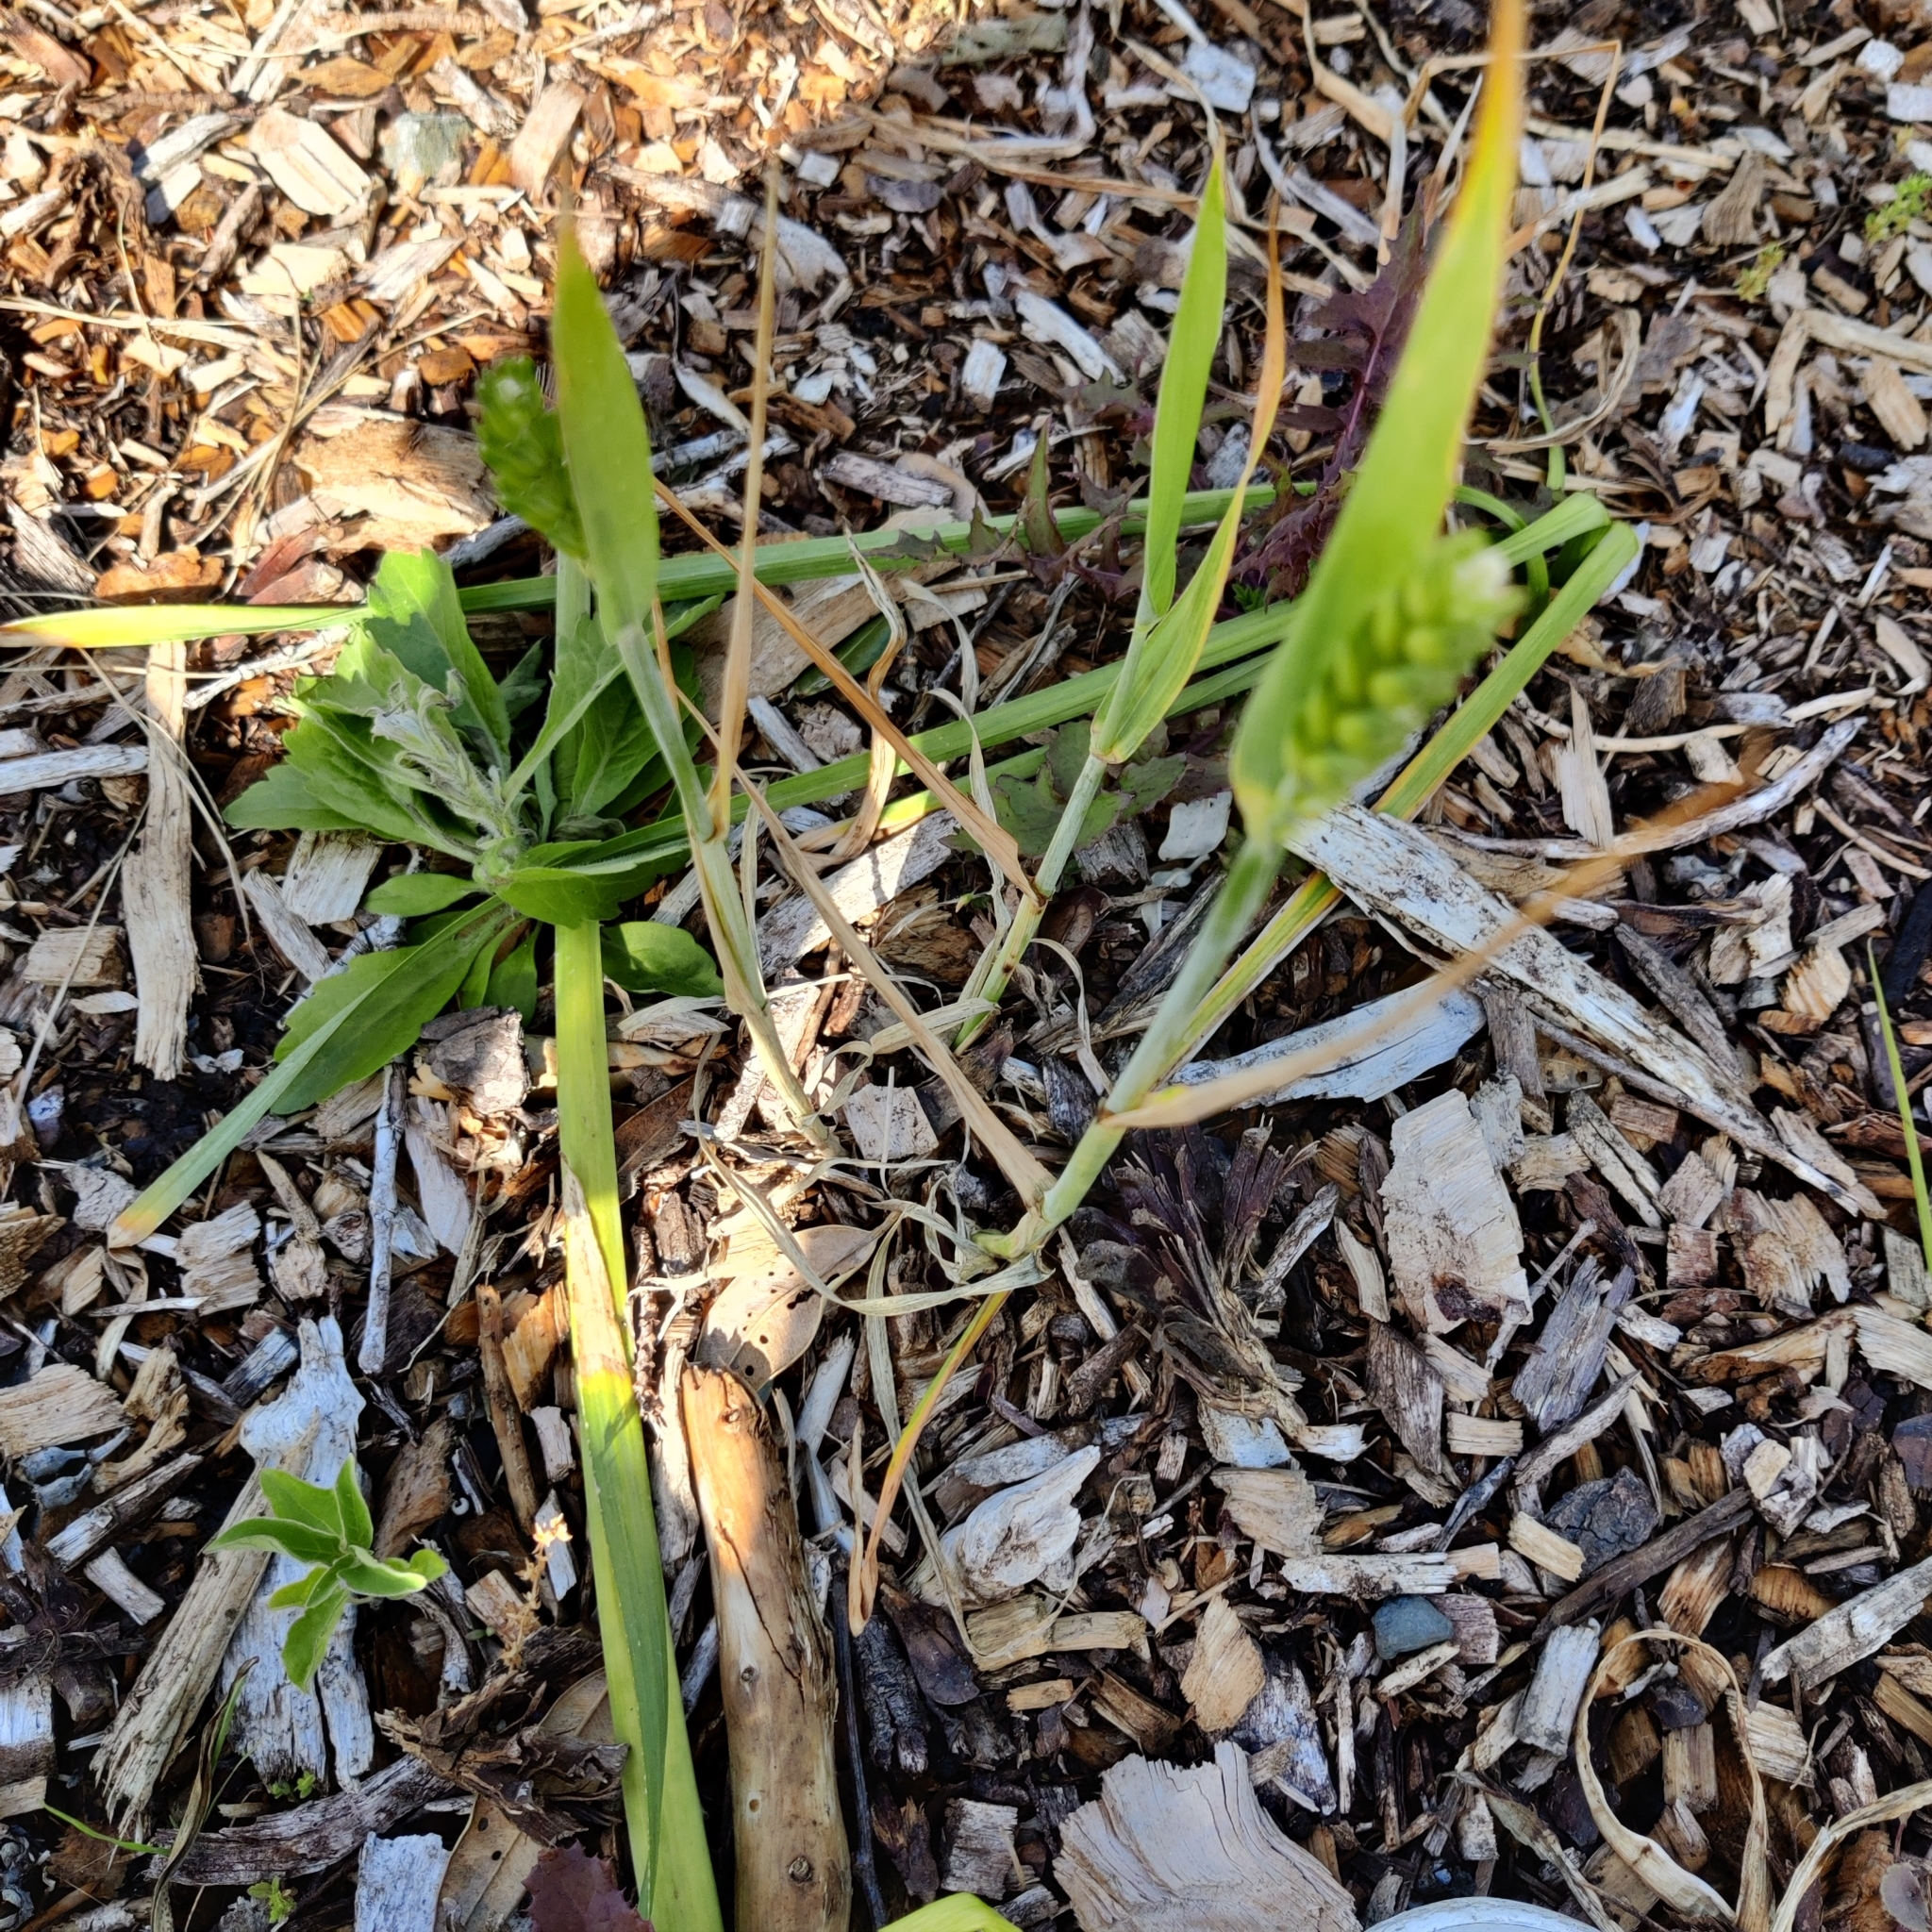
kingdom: Plantae
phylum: Tracheophyta
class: Liliopsida
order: Poales
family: Poaceae
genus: Triticum
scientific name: Triticum aestivum
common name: Common wheat
